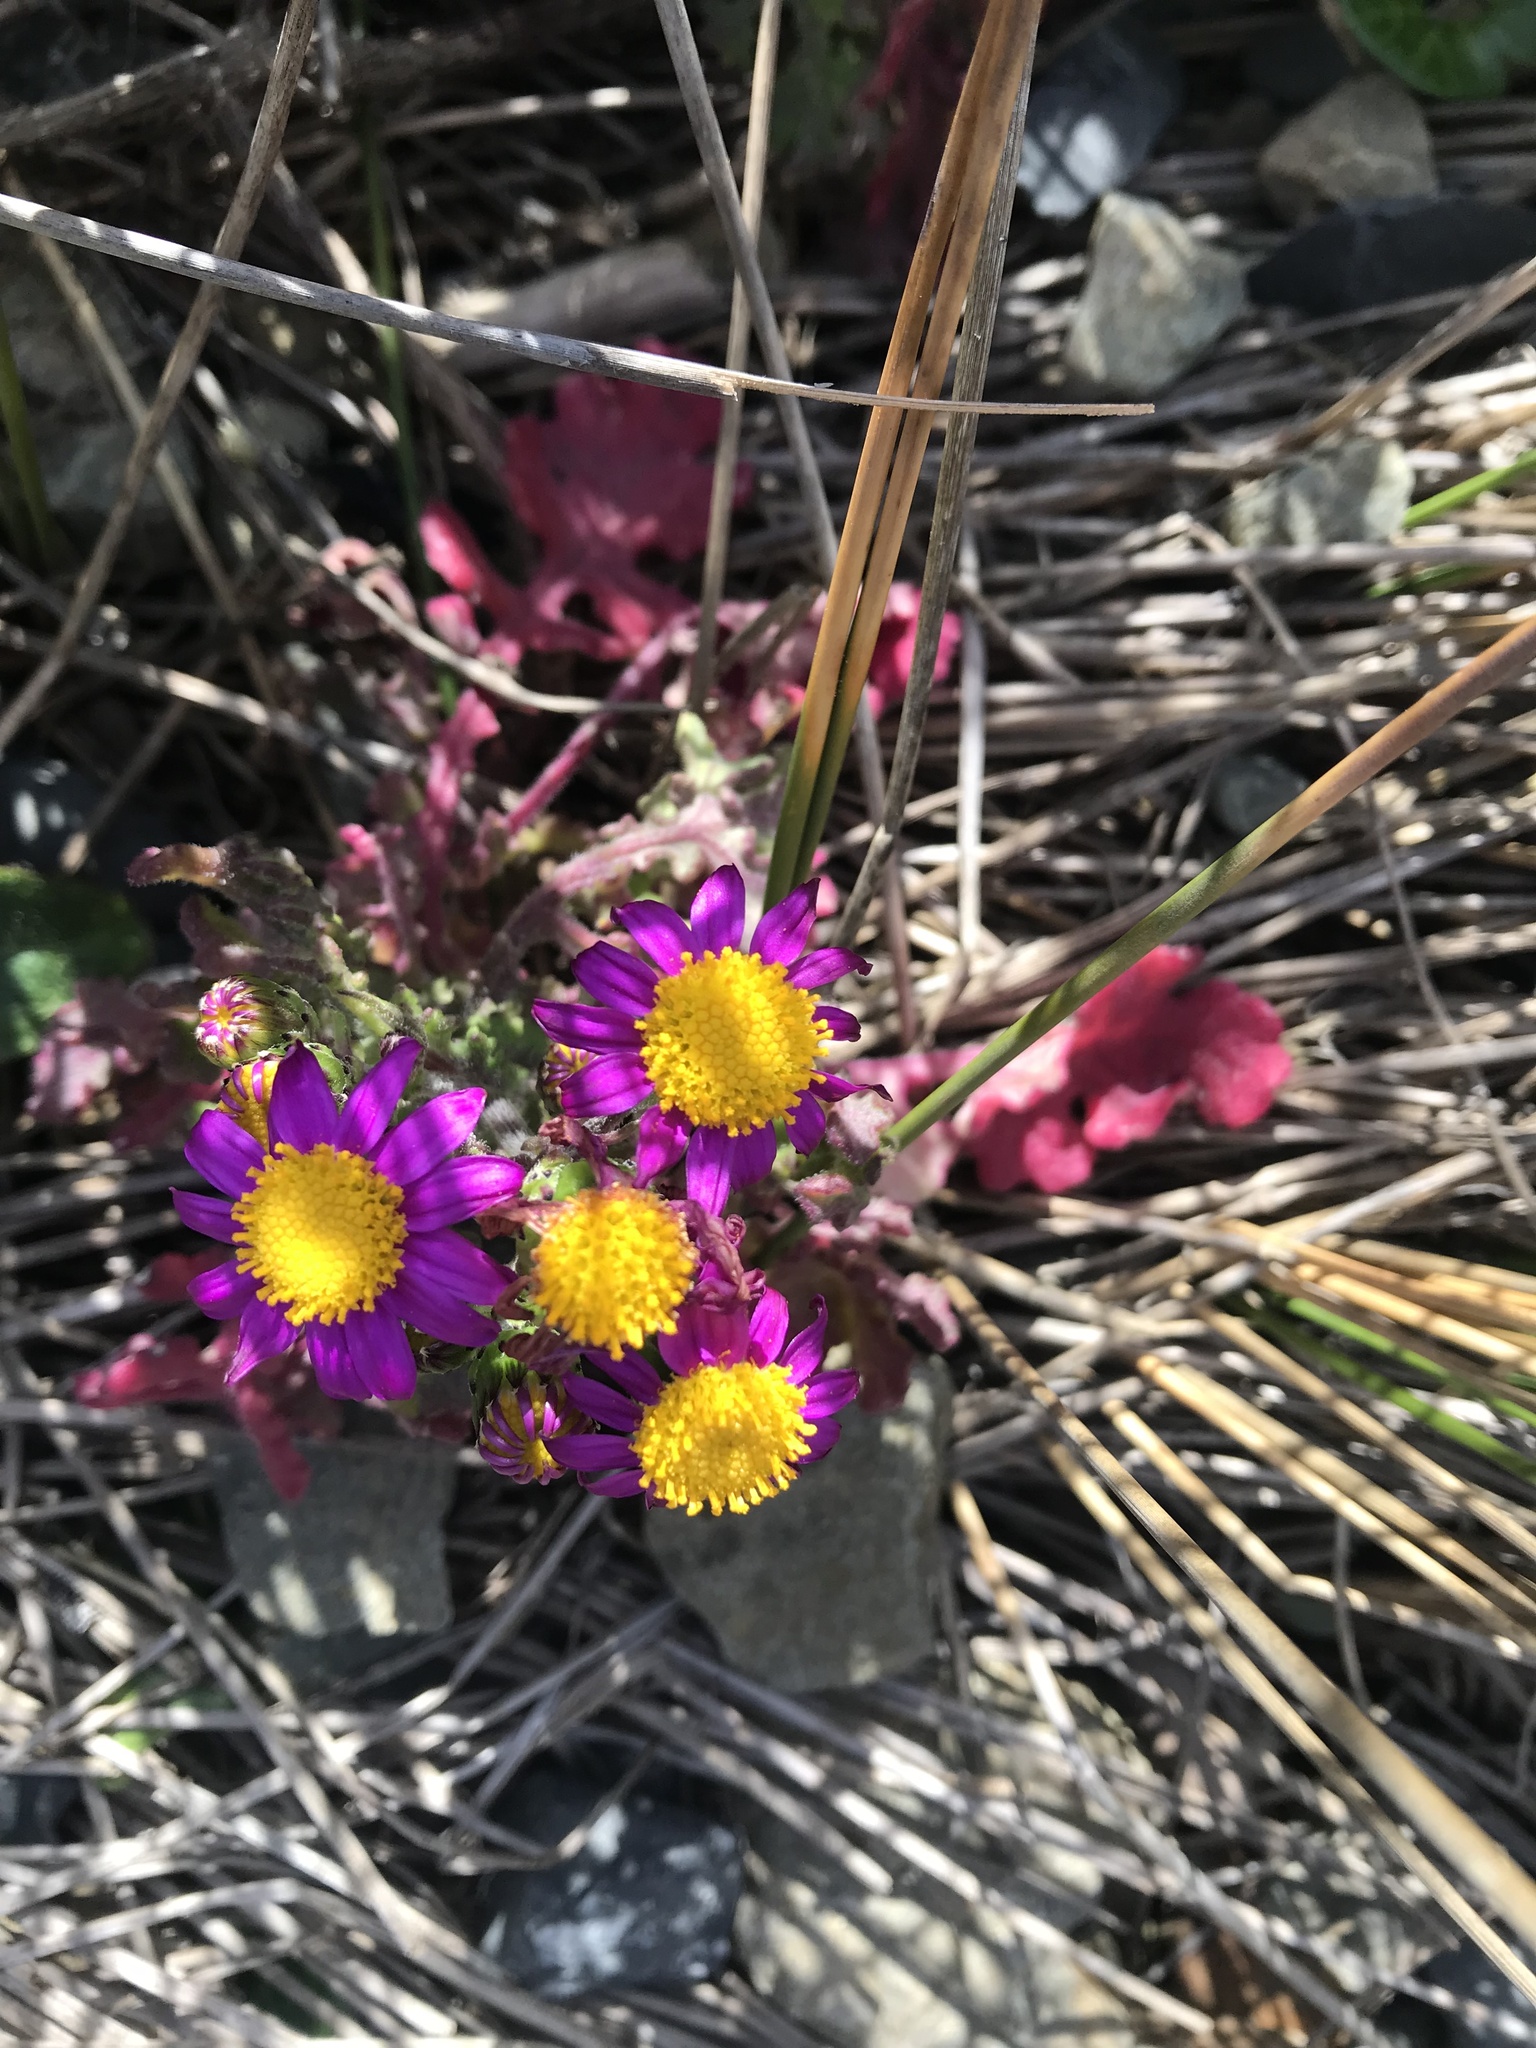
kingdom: Plantae
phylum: Tracheophyta
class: Magnoliopsida
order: Asterales
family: Asteraceae
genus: Senecio
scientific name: Senecio elegans
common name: Purple groundsel
